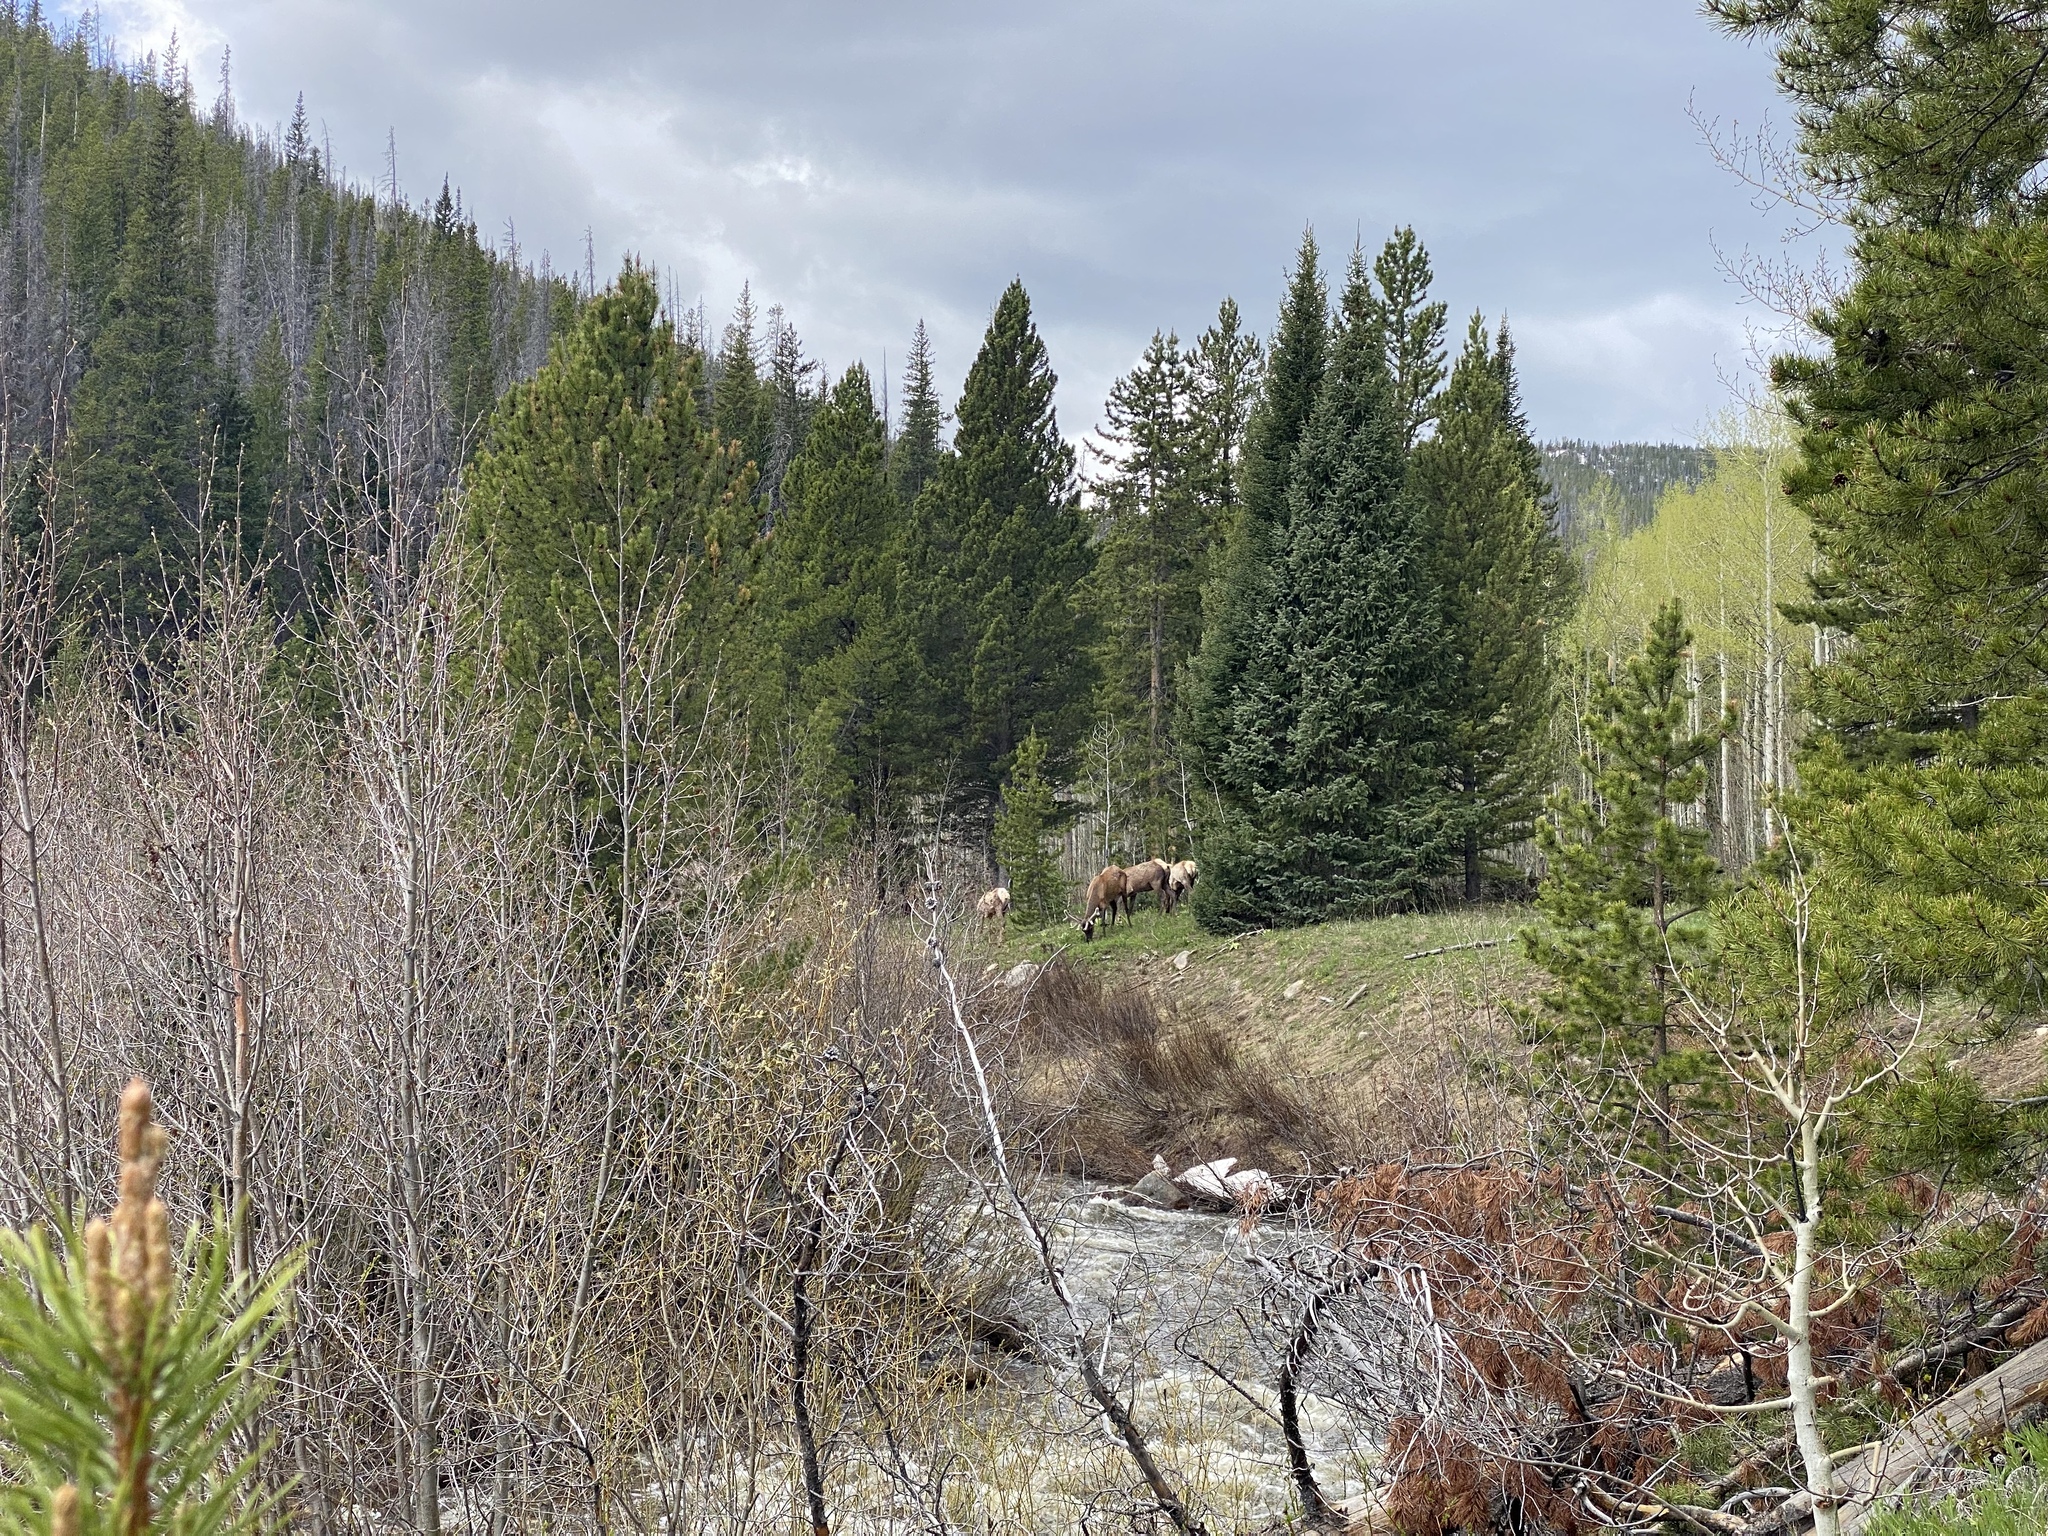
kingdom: Animalia
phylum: Chordata
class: Mammalia
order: Artiodactyla
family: Cervidae
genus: Cervus
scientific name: Cervus elaphus
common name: Red deer
